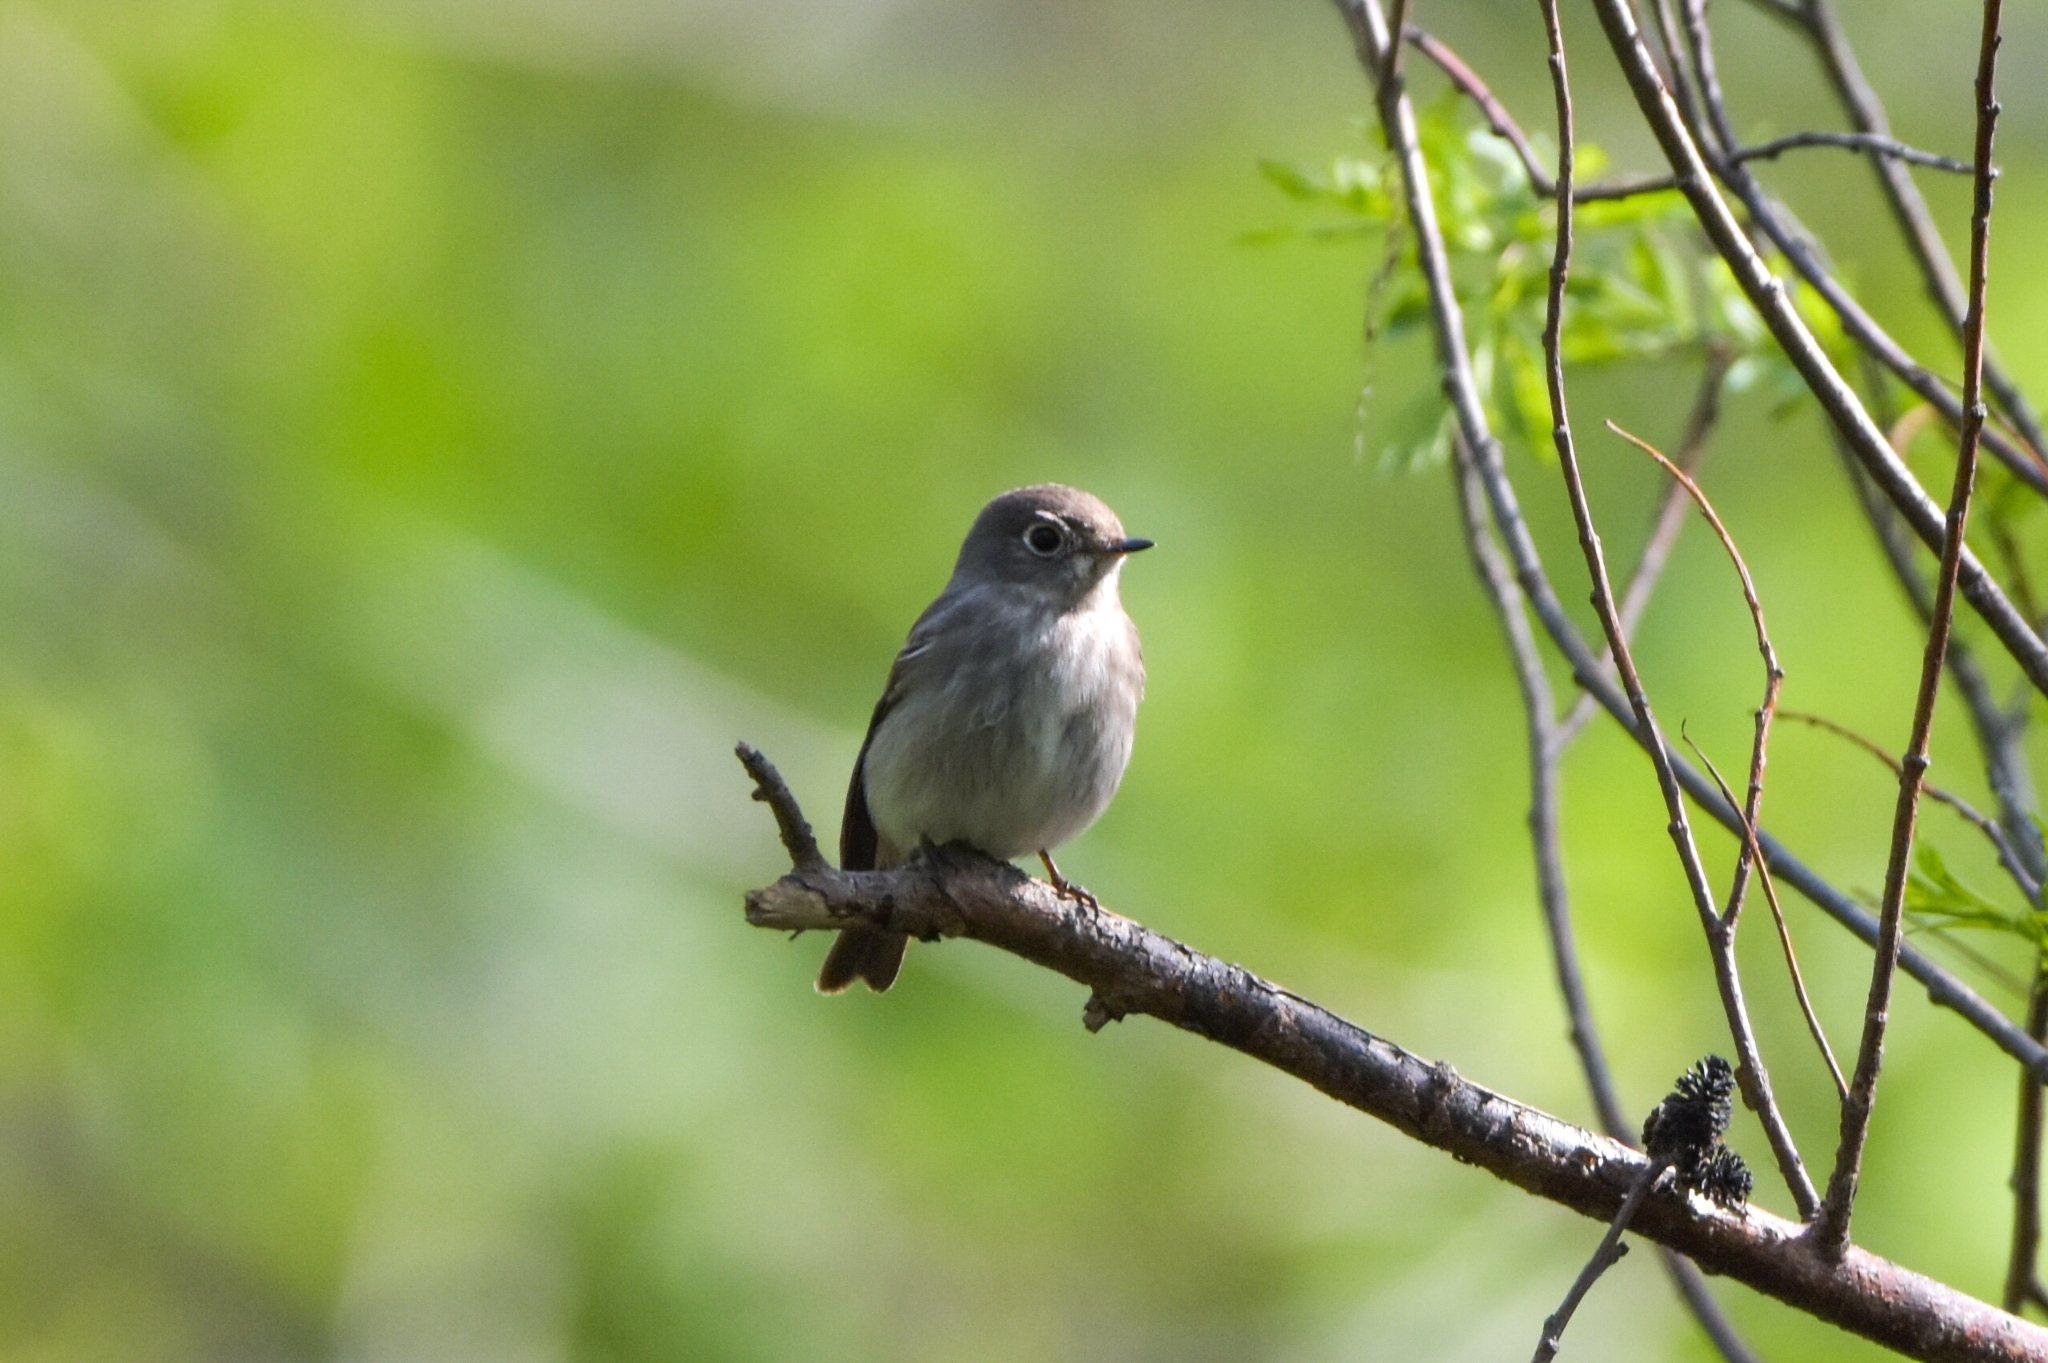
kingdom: Animalia
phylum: Chordata
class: Aves
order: Passeriformes
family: Muscicapidae
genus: Muscicapa
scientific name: Muscicapa sibirica
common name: Dark-sided flycatcher
